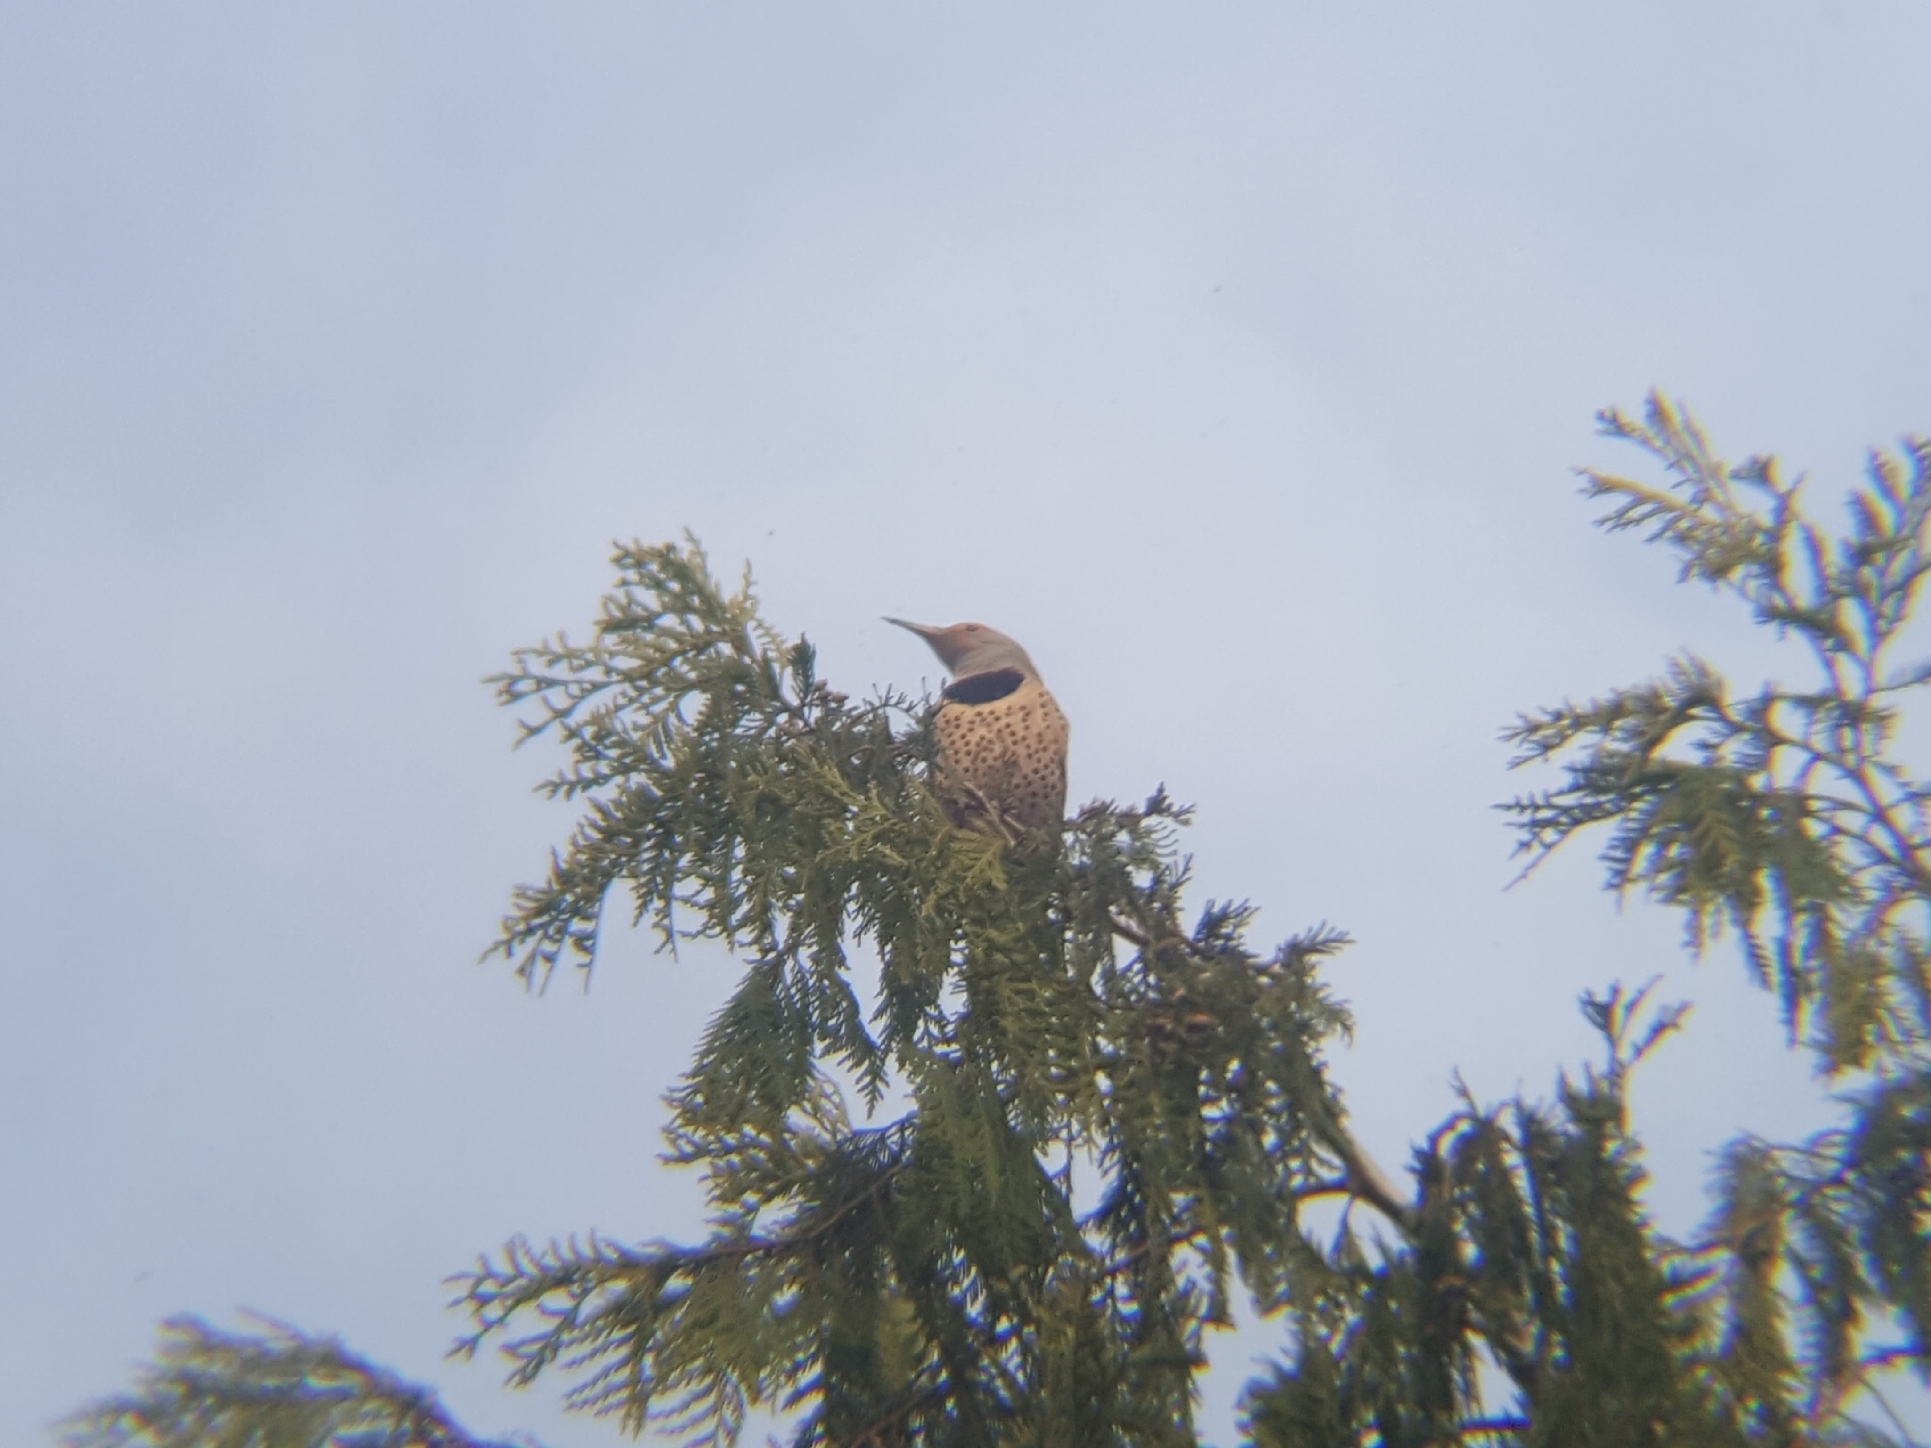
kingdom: Animalia
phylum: Chordata
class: Aves
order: Piciformes
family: Picidae
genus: Colaptes
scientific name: Colaptes auratus
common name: Northern flicker
